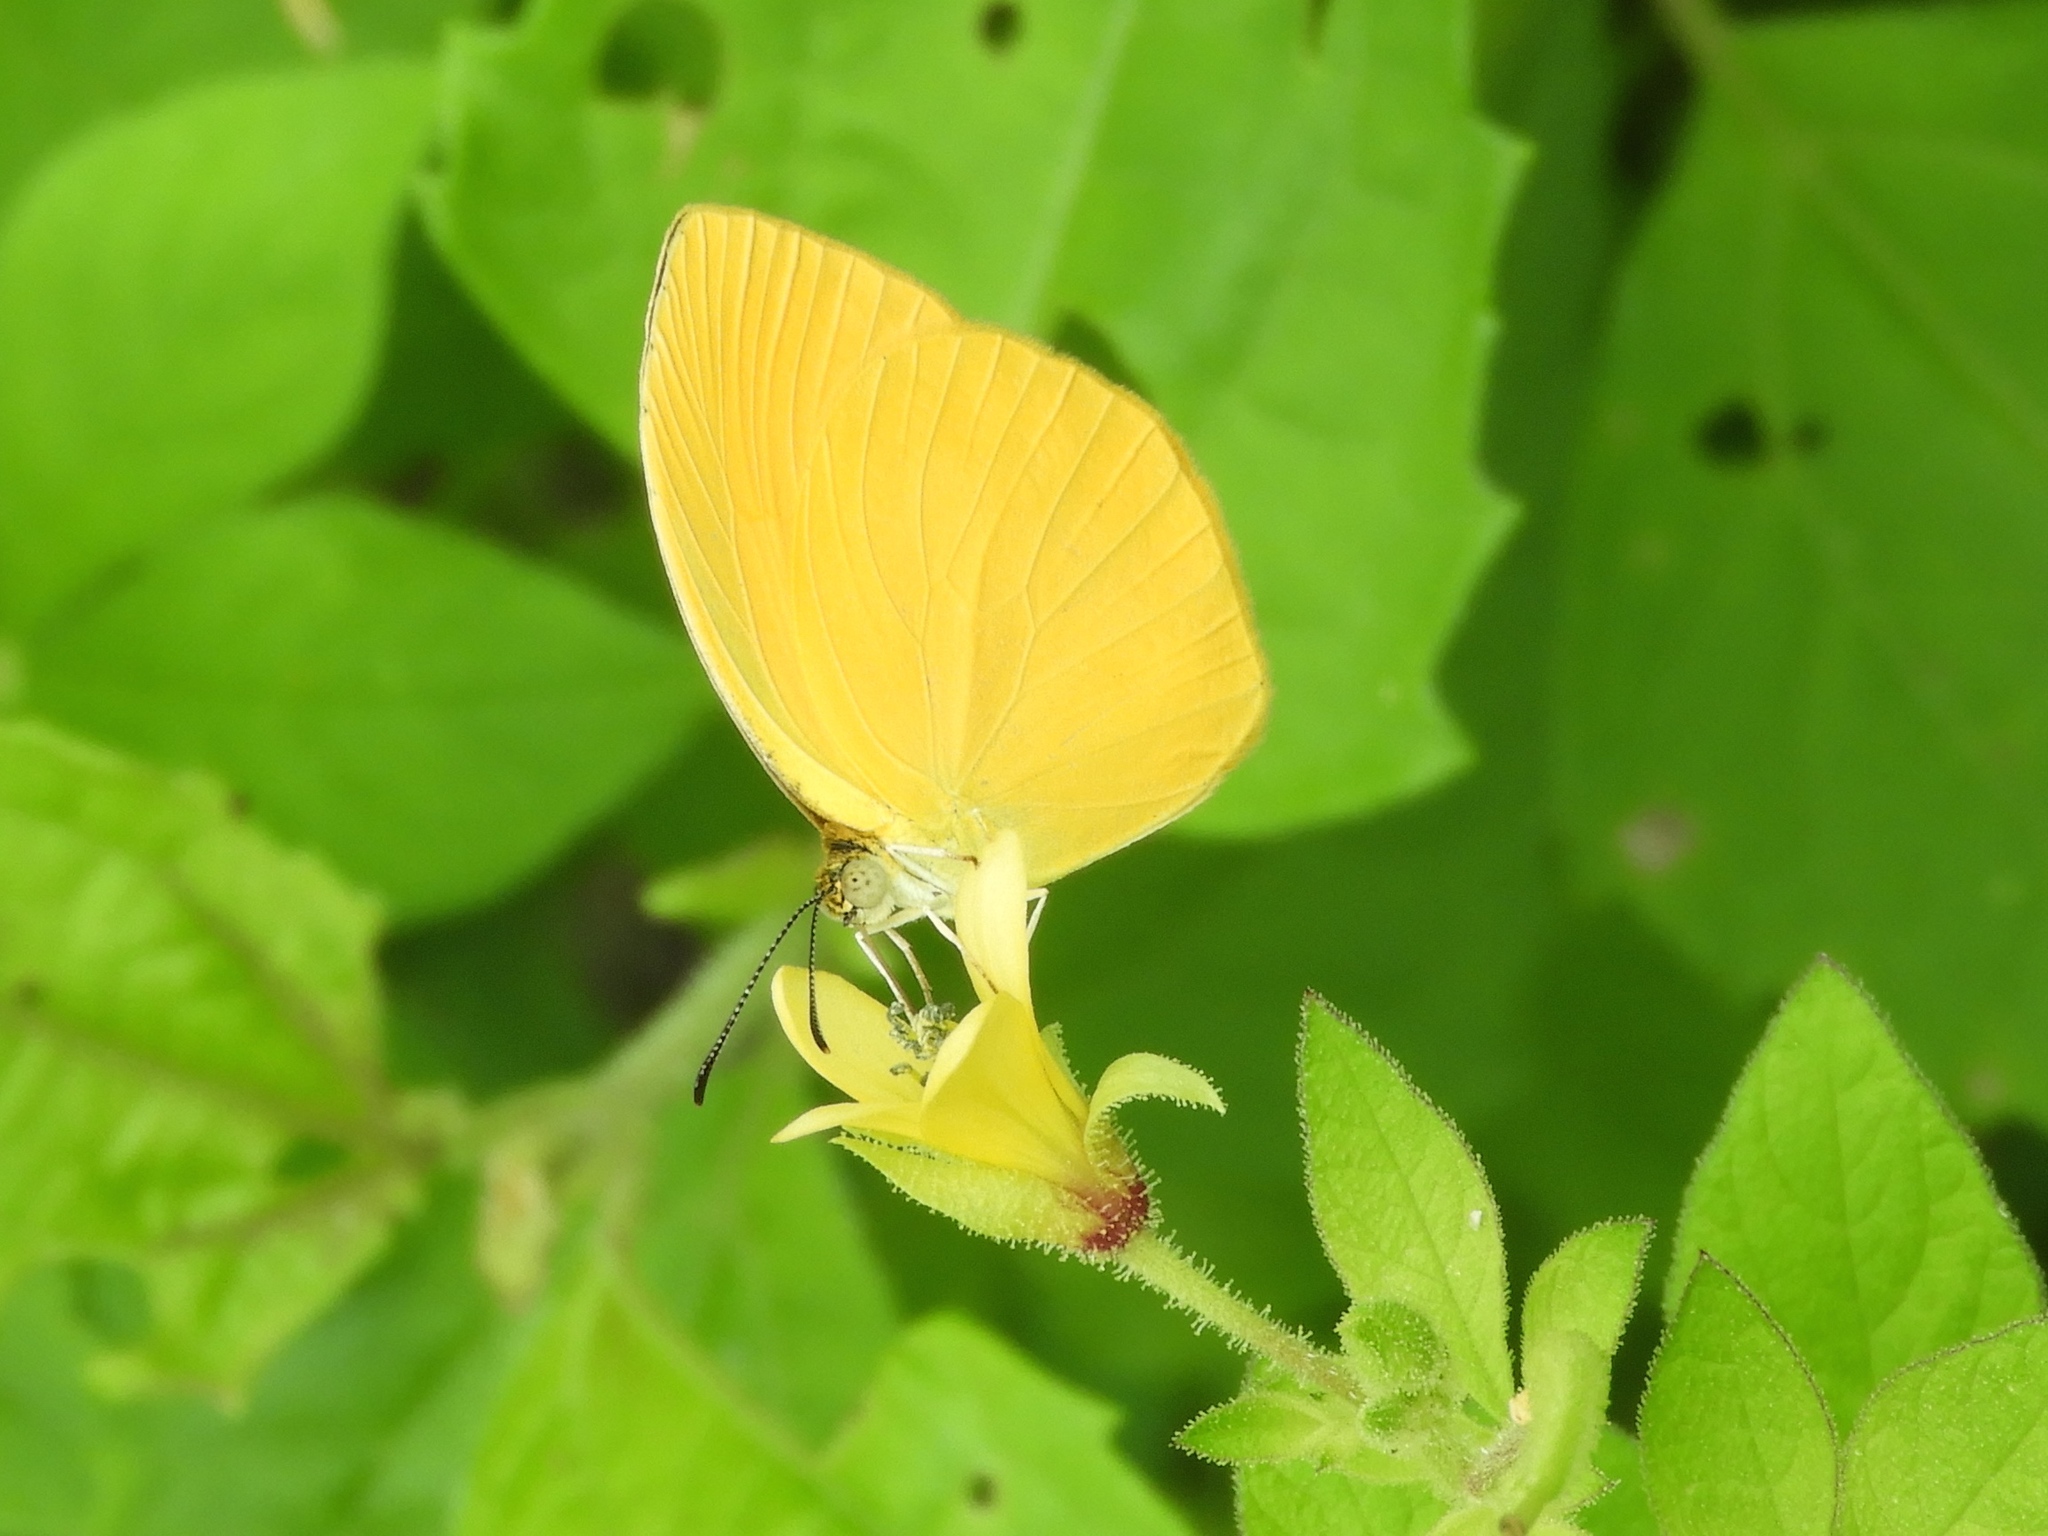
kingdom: Animalia
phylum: Arthropoda
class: Insecta
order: Lepidoptera
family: Pieridae
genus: Pyrisitia
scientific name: Pyrisitia proterpia
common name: Tailed orange
